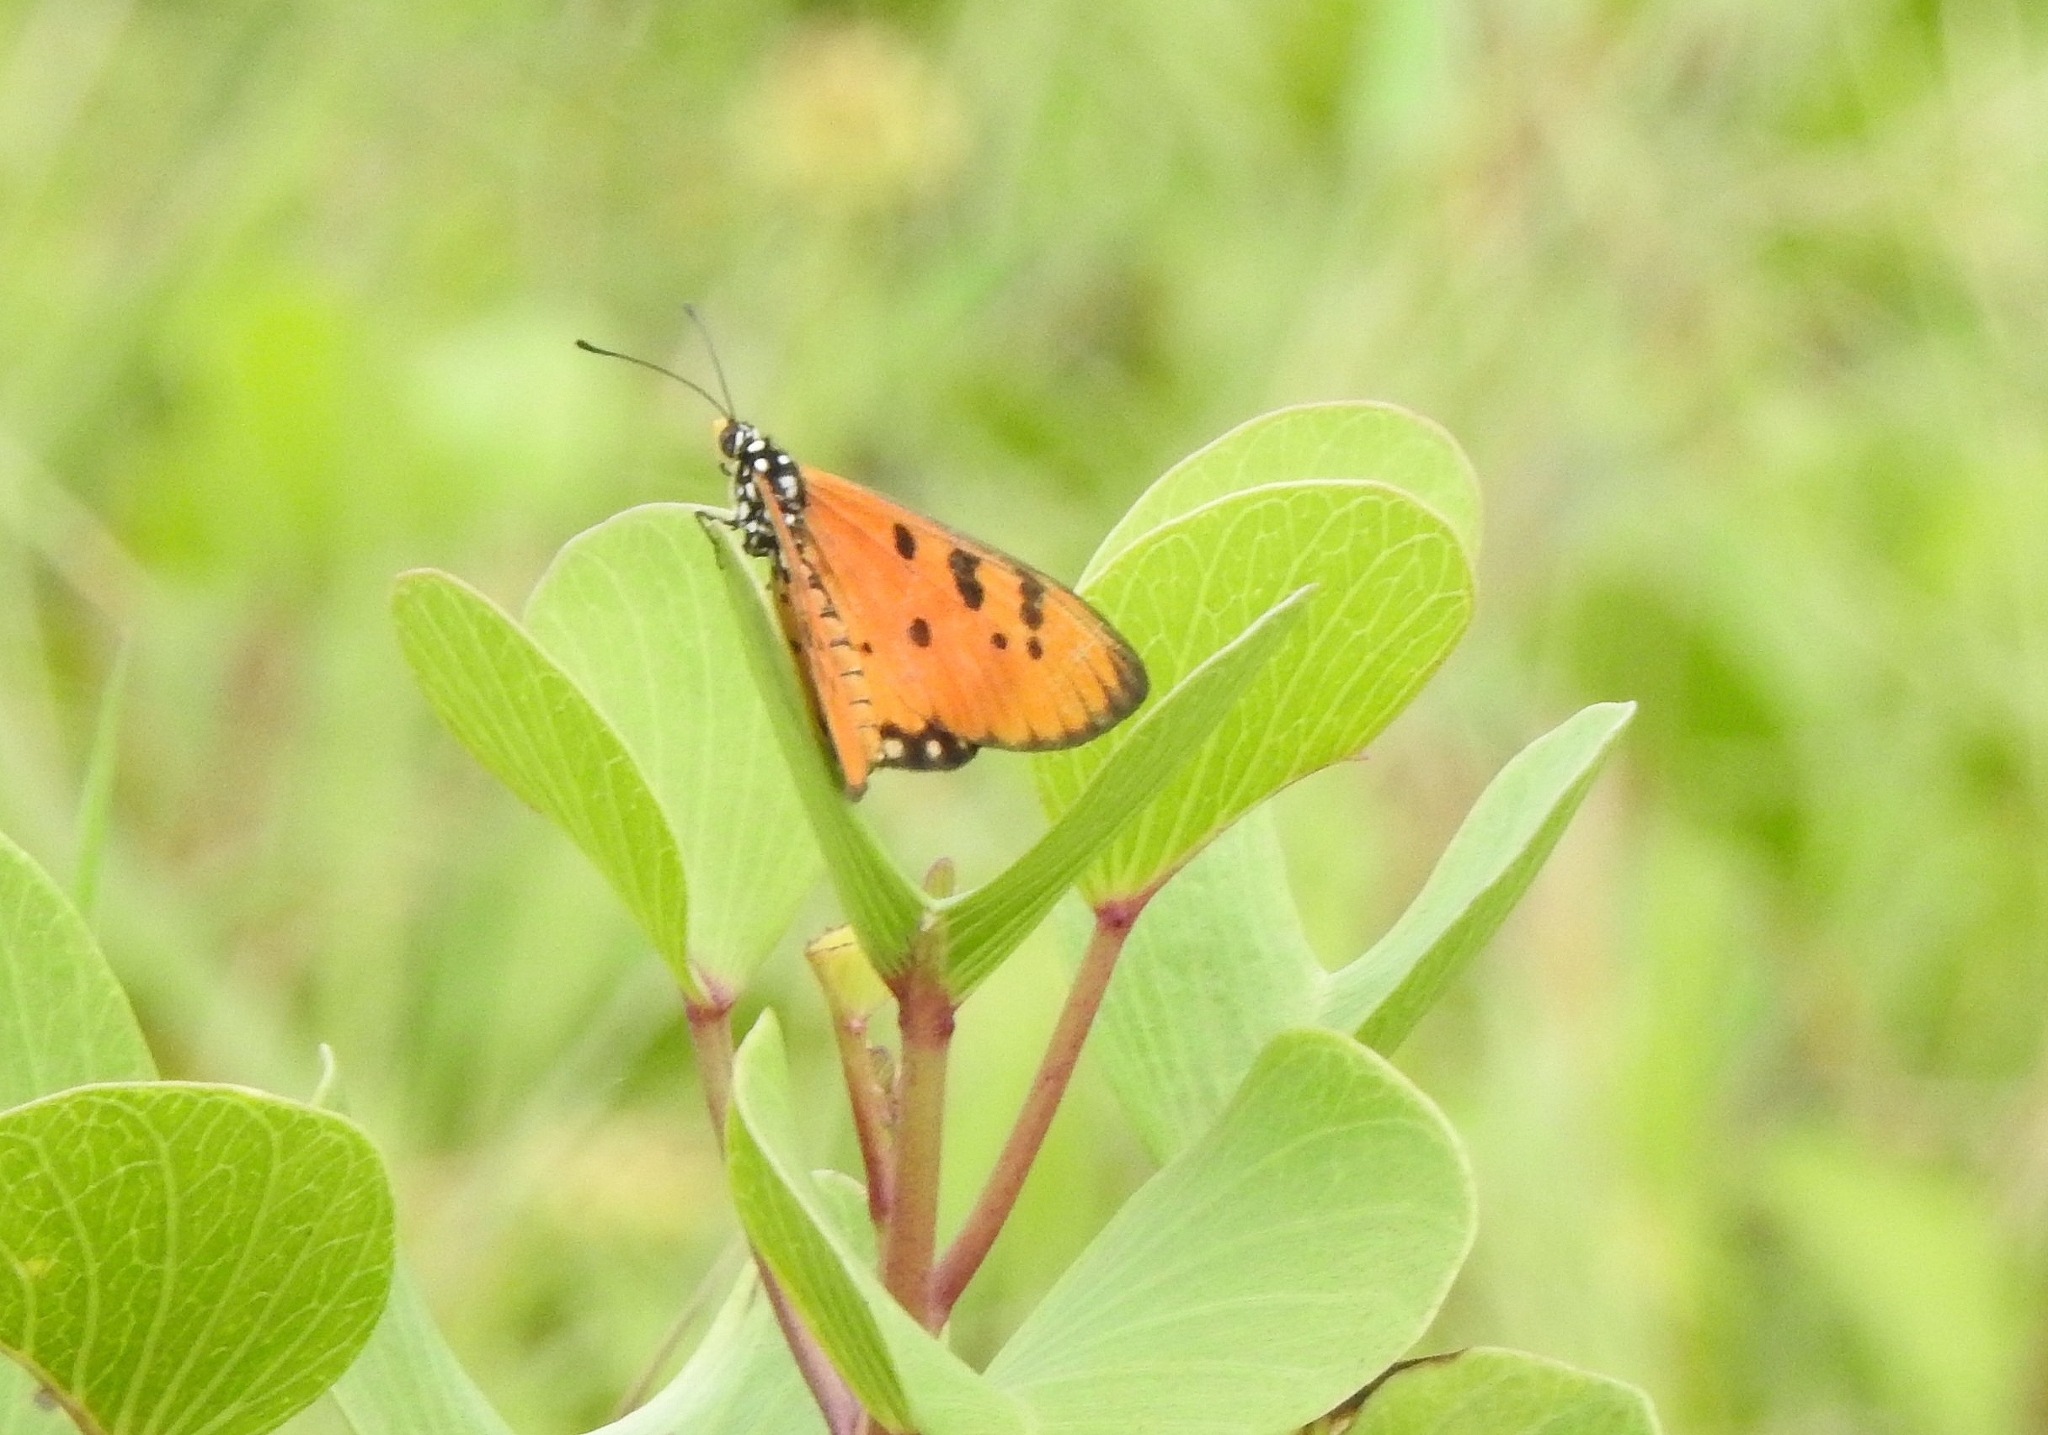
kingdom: Animalia
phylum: Arthropoda
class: Insecta
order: Lepidoptera
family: Nymphalidae
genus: Acraea
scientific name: Acraea terpsicore
